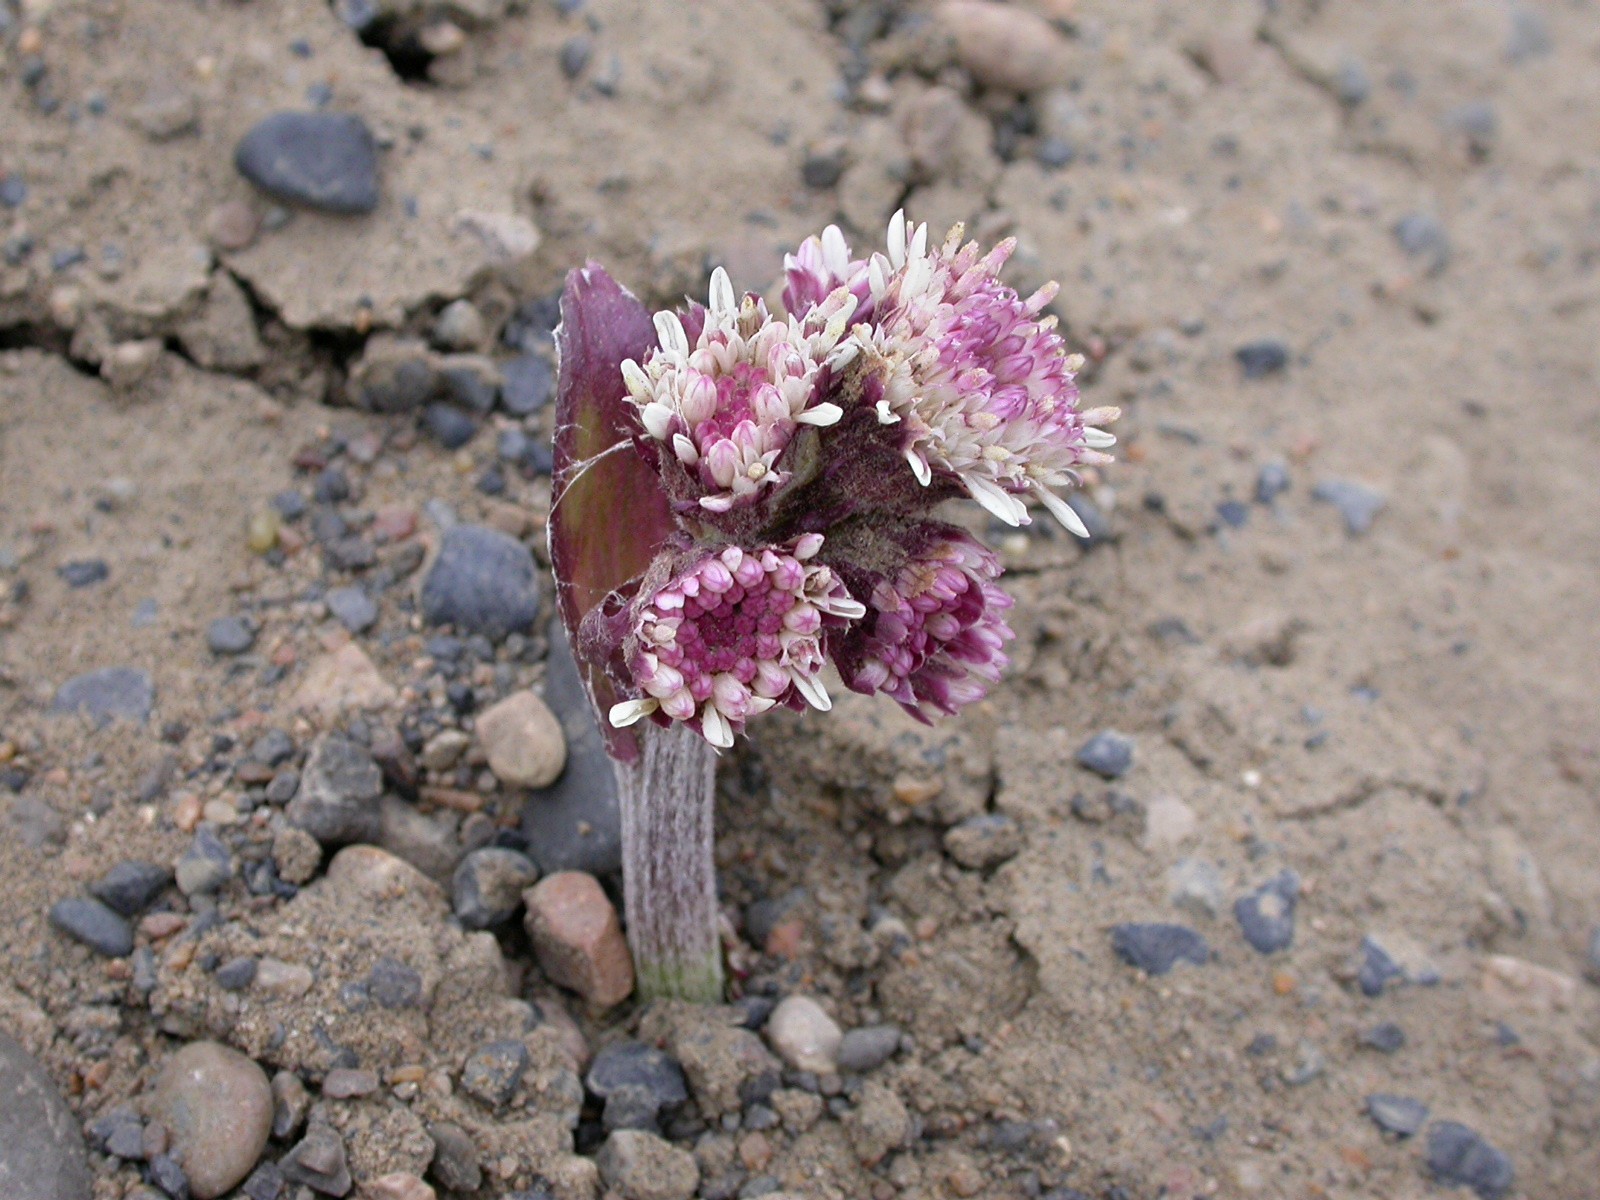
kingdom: Plantae
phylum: Tracheophyta
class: Magnoliopsida
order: Asterales
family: Asteraceae
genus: Petasites
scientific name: Petasites frigidus
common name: Arctic butterbur
